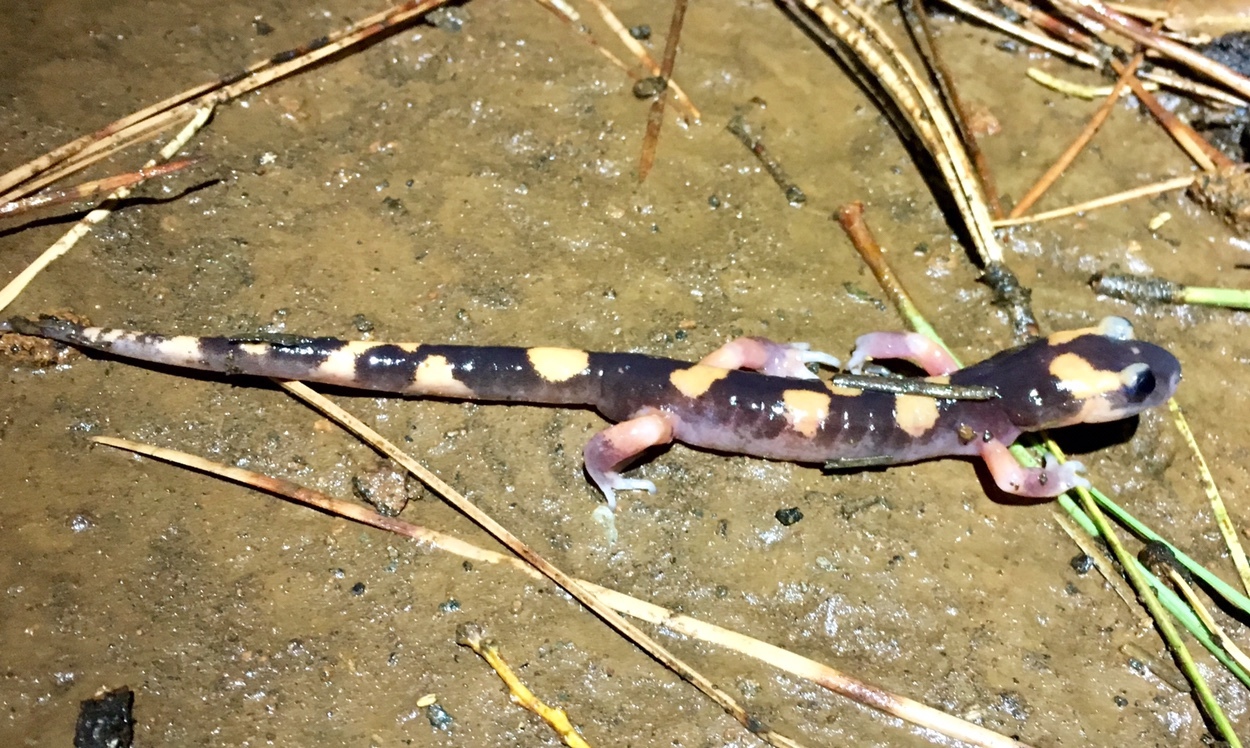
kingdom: Animalia
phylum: Chordata
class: Amphibia
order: Caudata
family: Plethodontidae
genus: Ensatina
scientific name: Ensatina eschscholtzii
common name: Ensatina
